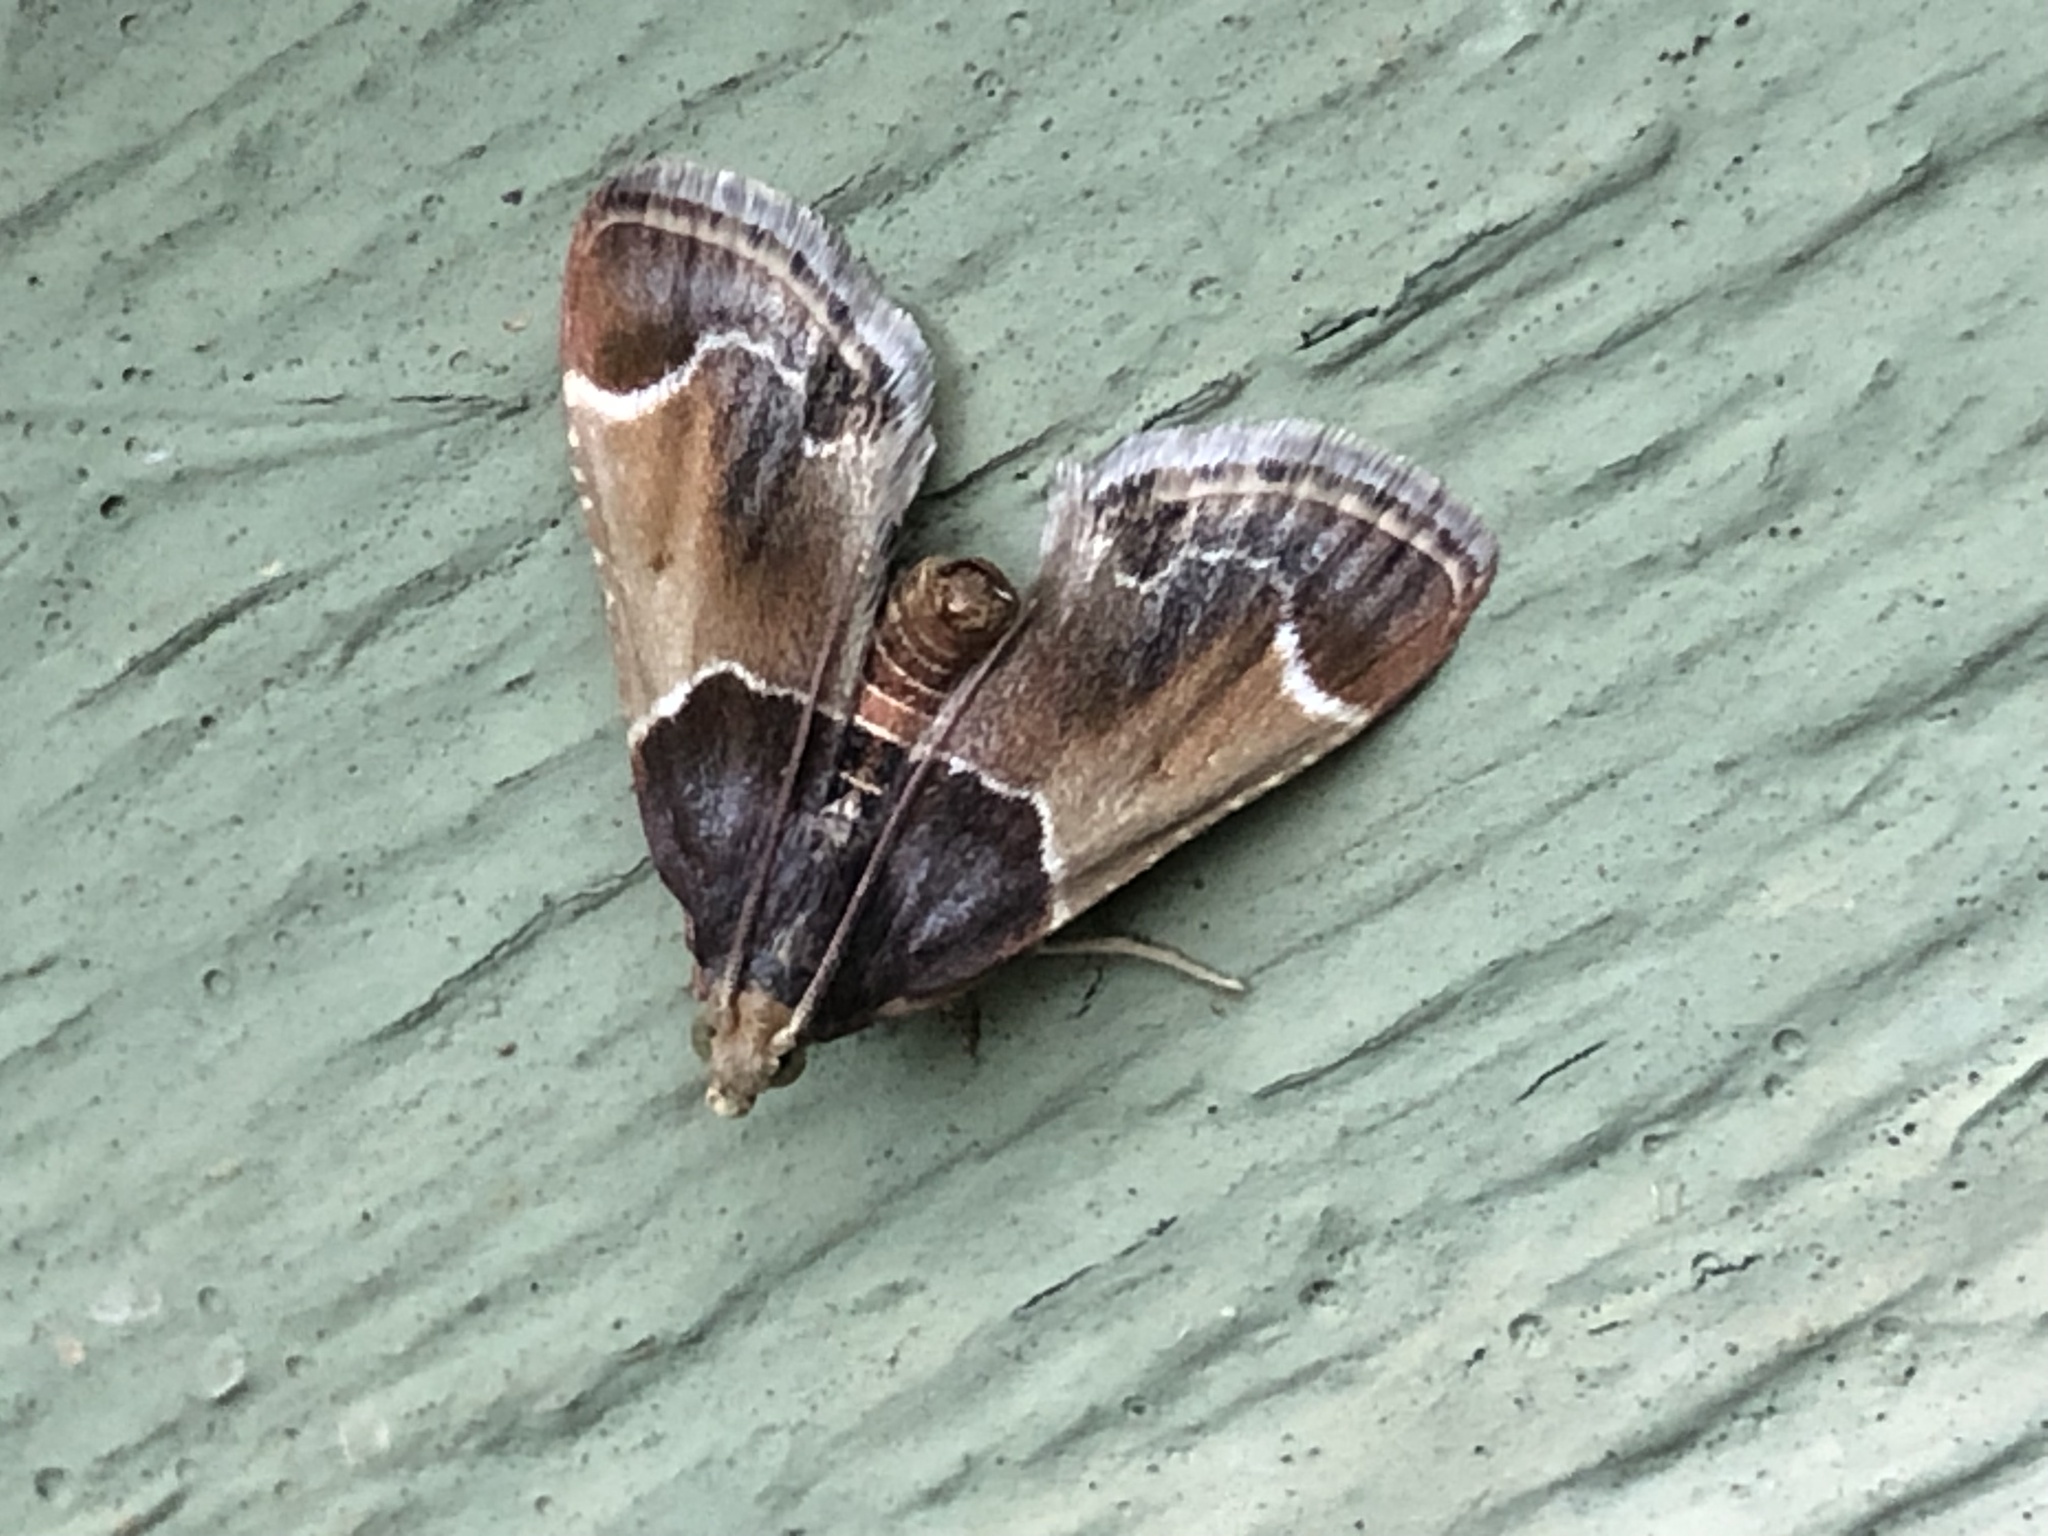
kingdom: Animalia
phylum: Arthropoda
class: Insecta
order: Lepidoptera
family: Pyralidae
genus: Pyralis
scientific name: Pyralis farinalis
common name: Meal moth
